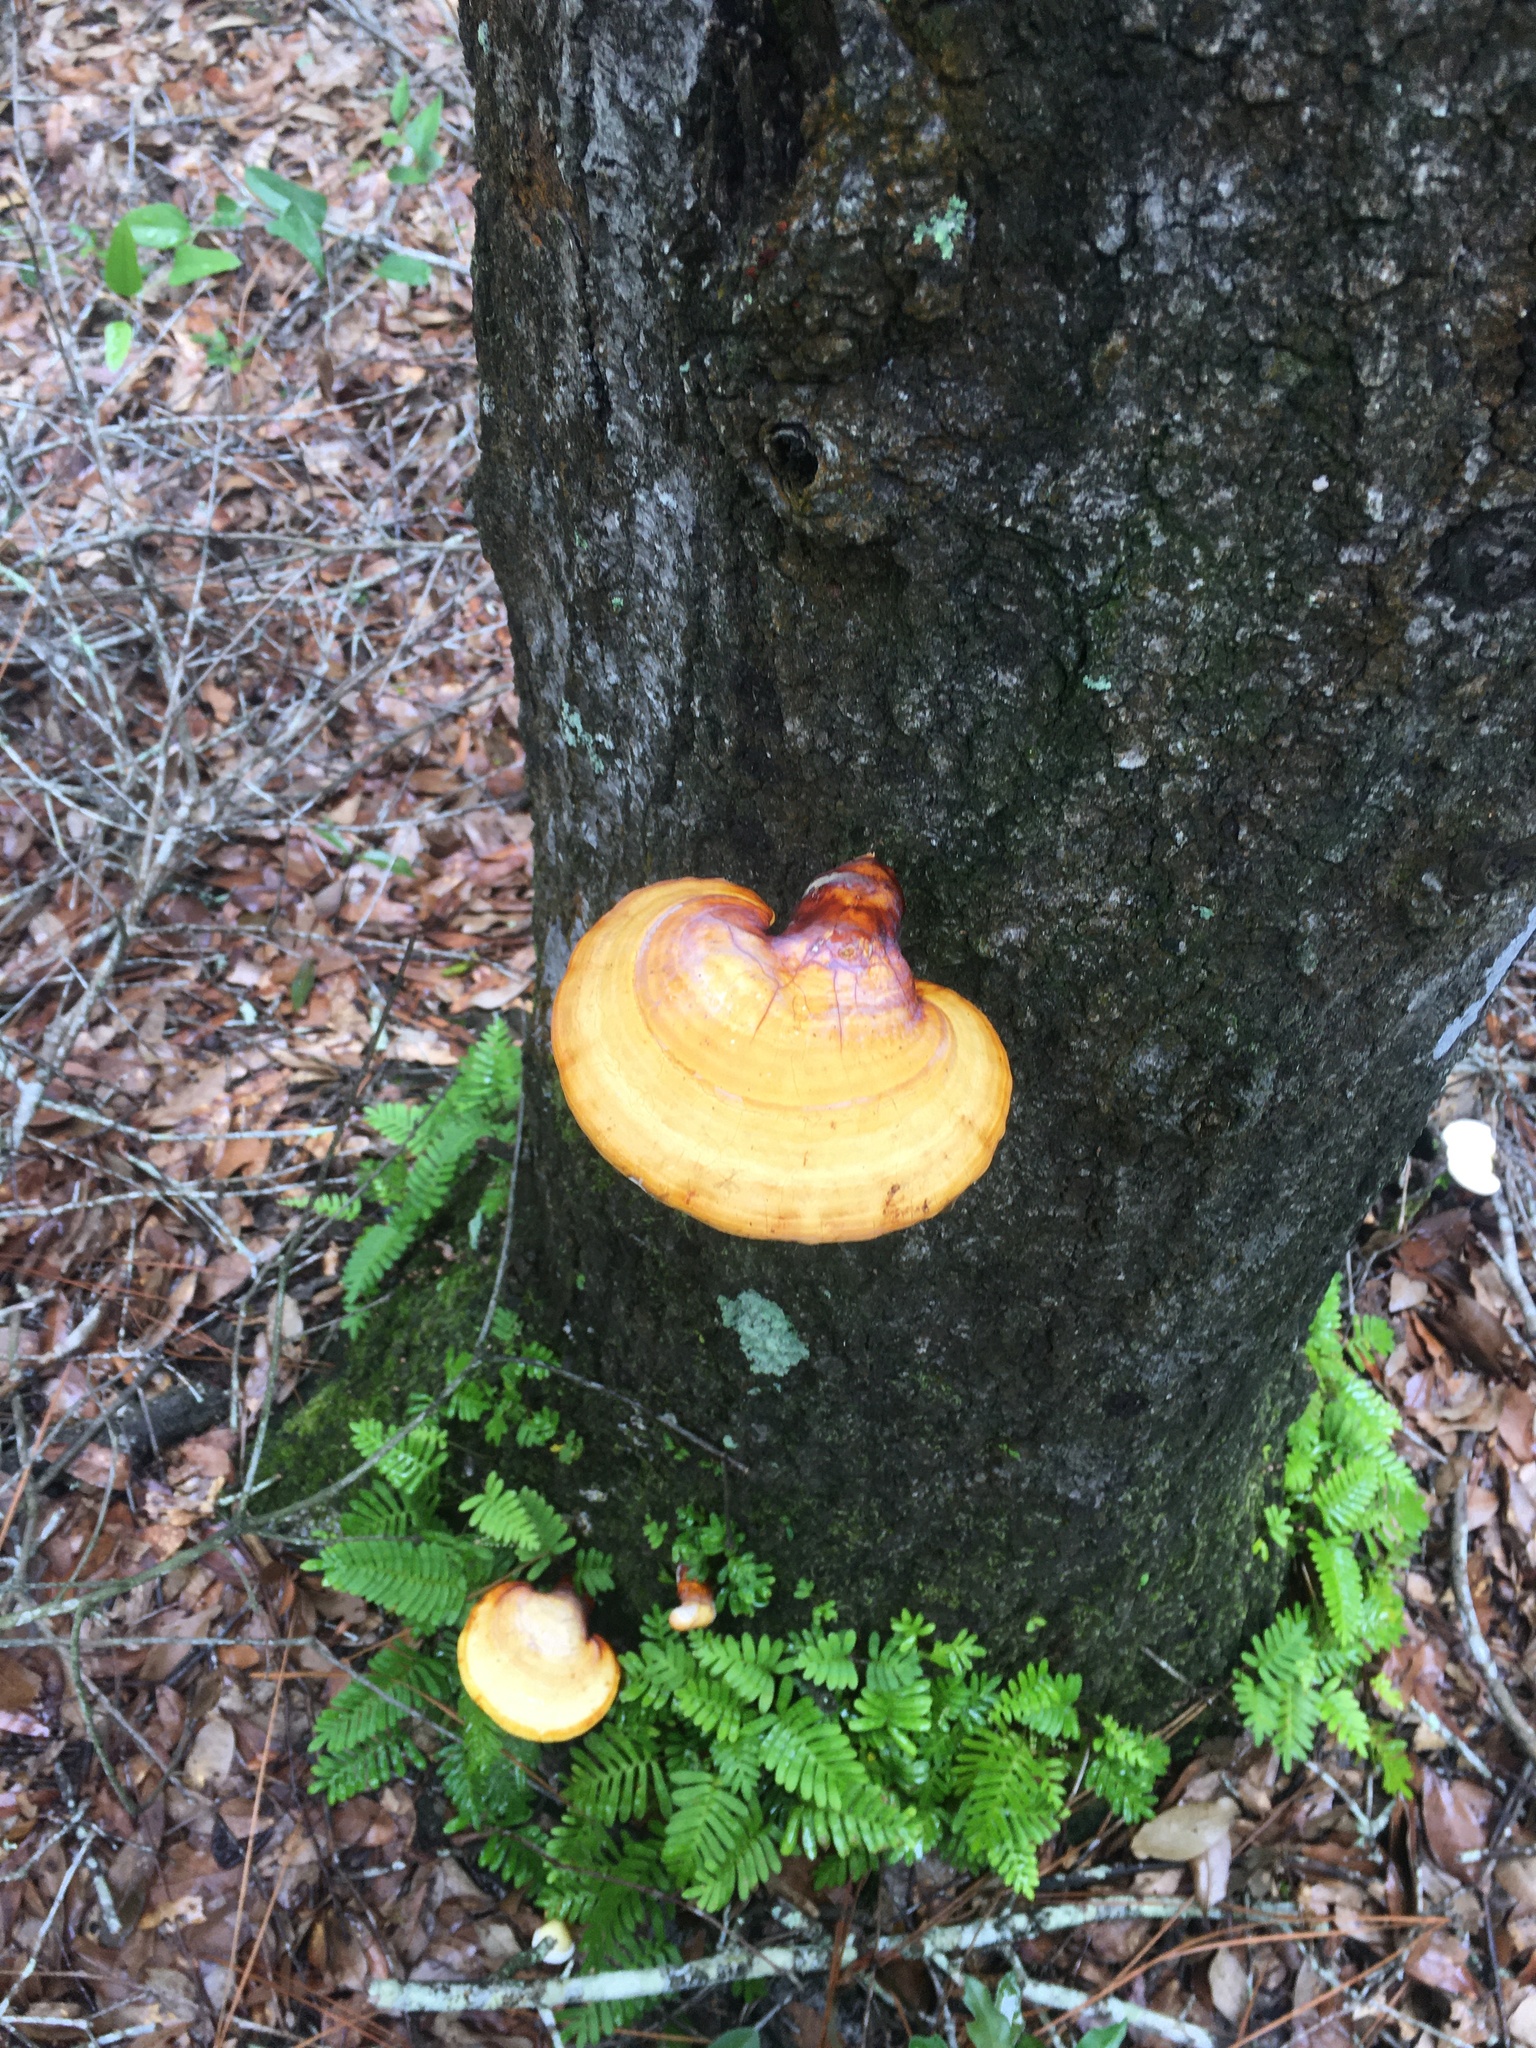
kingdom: Fungi
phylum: Basidiomycota
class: Agaricomycetes
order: Polyporales
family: Polyporaceae
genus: Ganoderma
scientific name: Ganoderma curtisii
